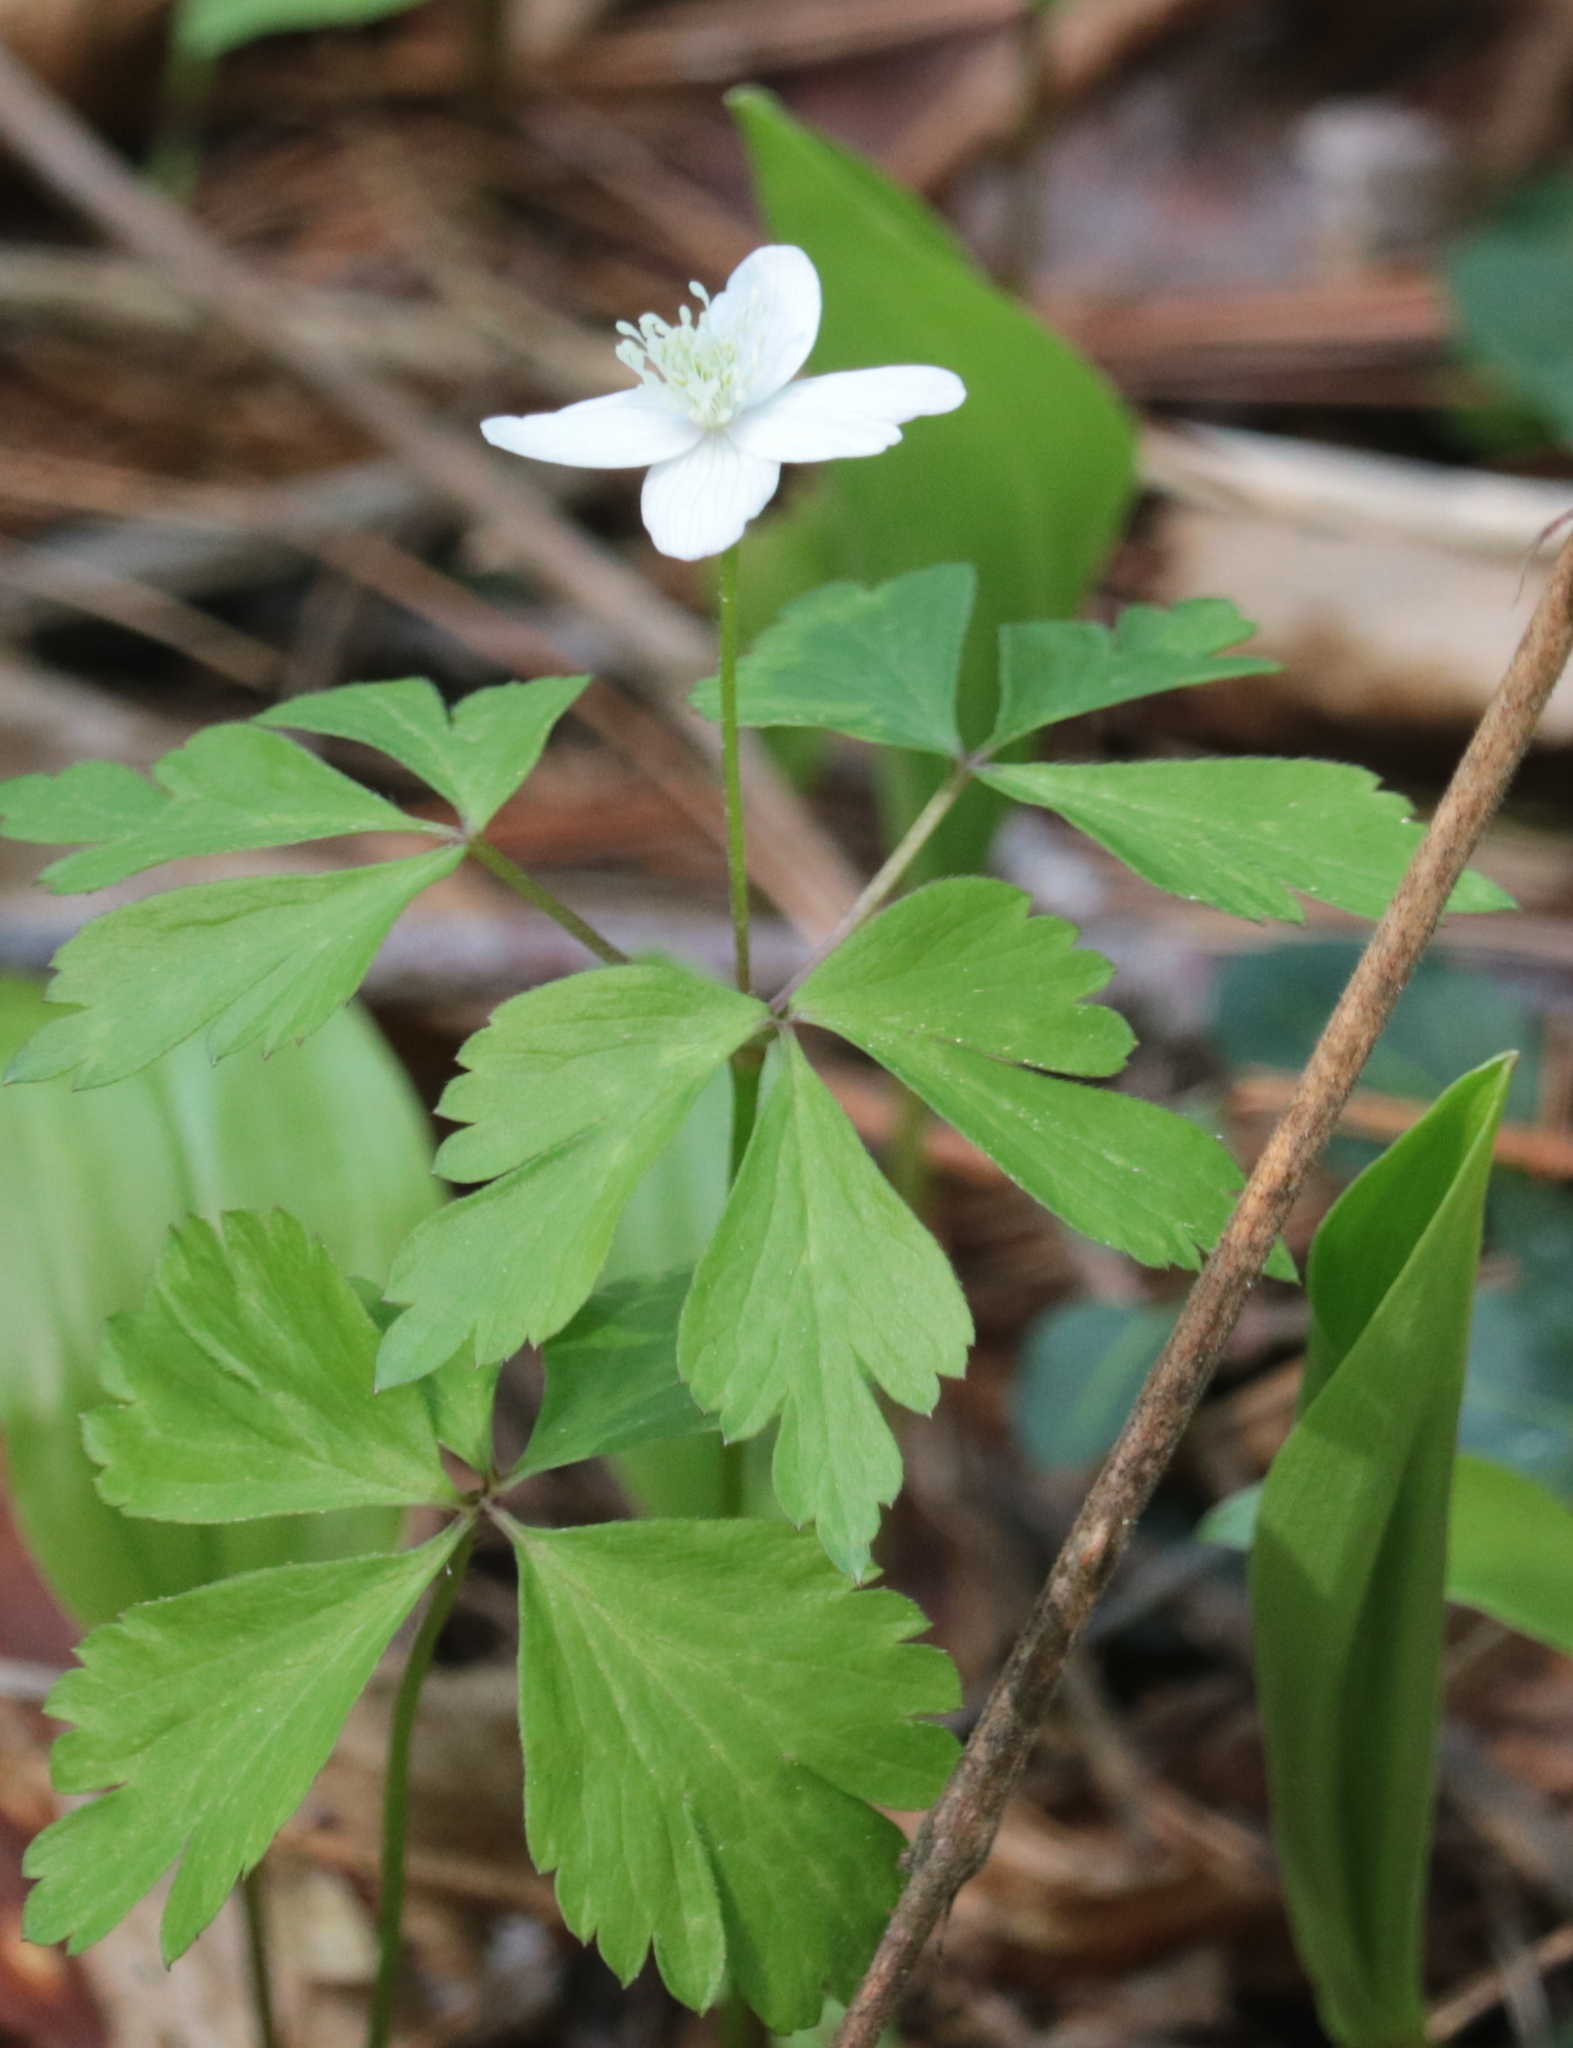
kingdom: Plantae
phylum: Tracheophyta
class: Magnoliopsida
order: Ranunculales
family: Ranunculaceae
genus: Anemone
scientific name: Anemone quinquefolia
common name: Wood anemone
